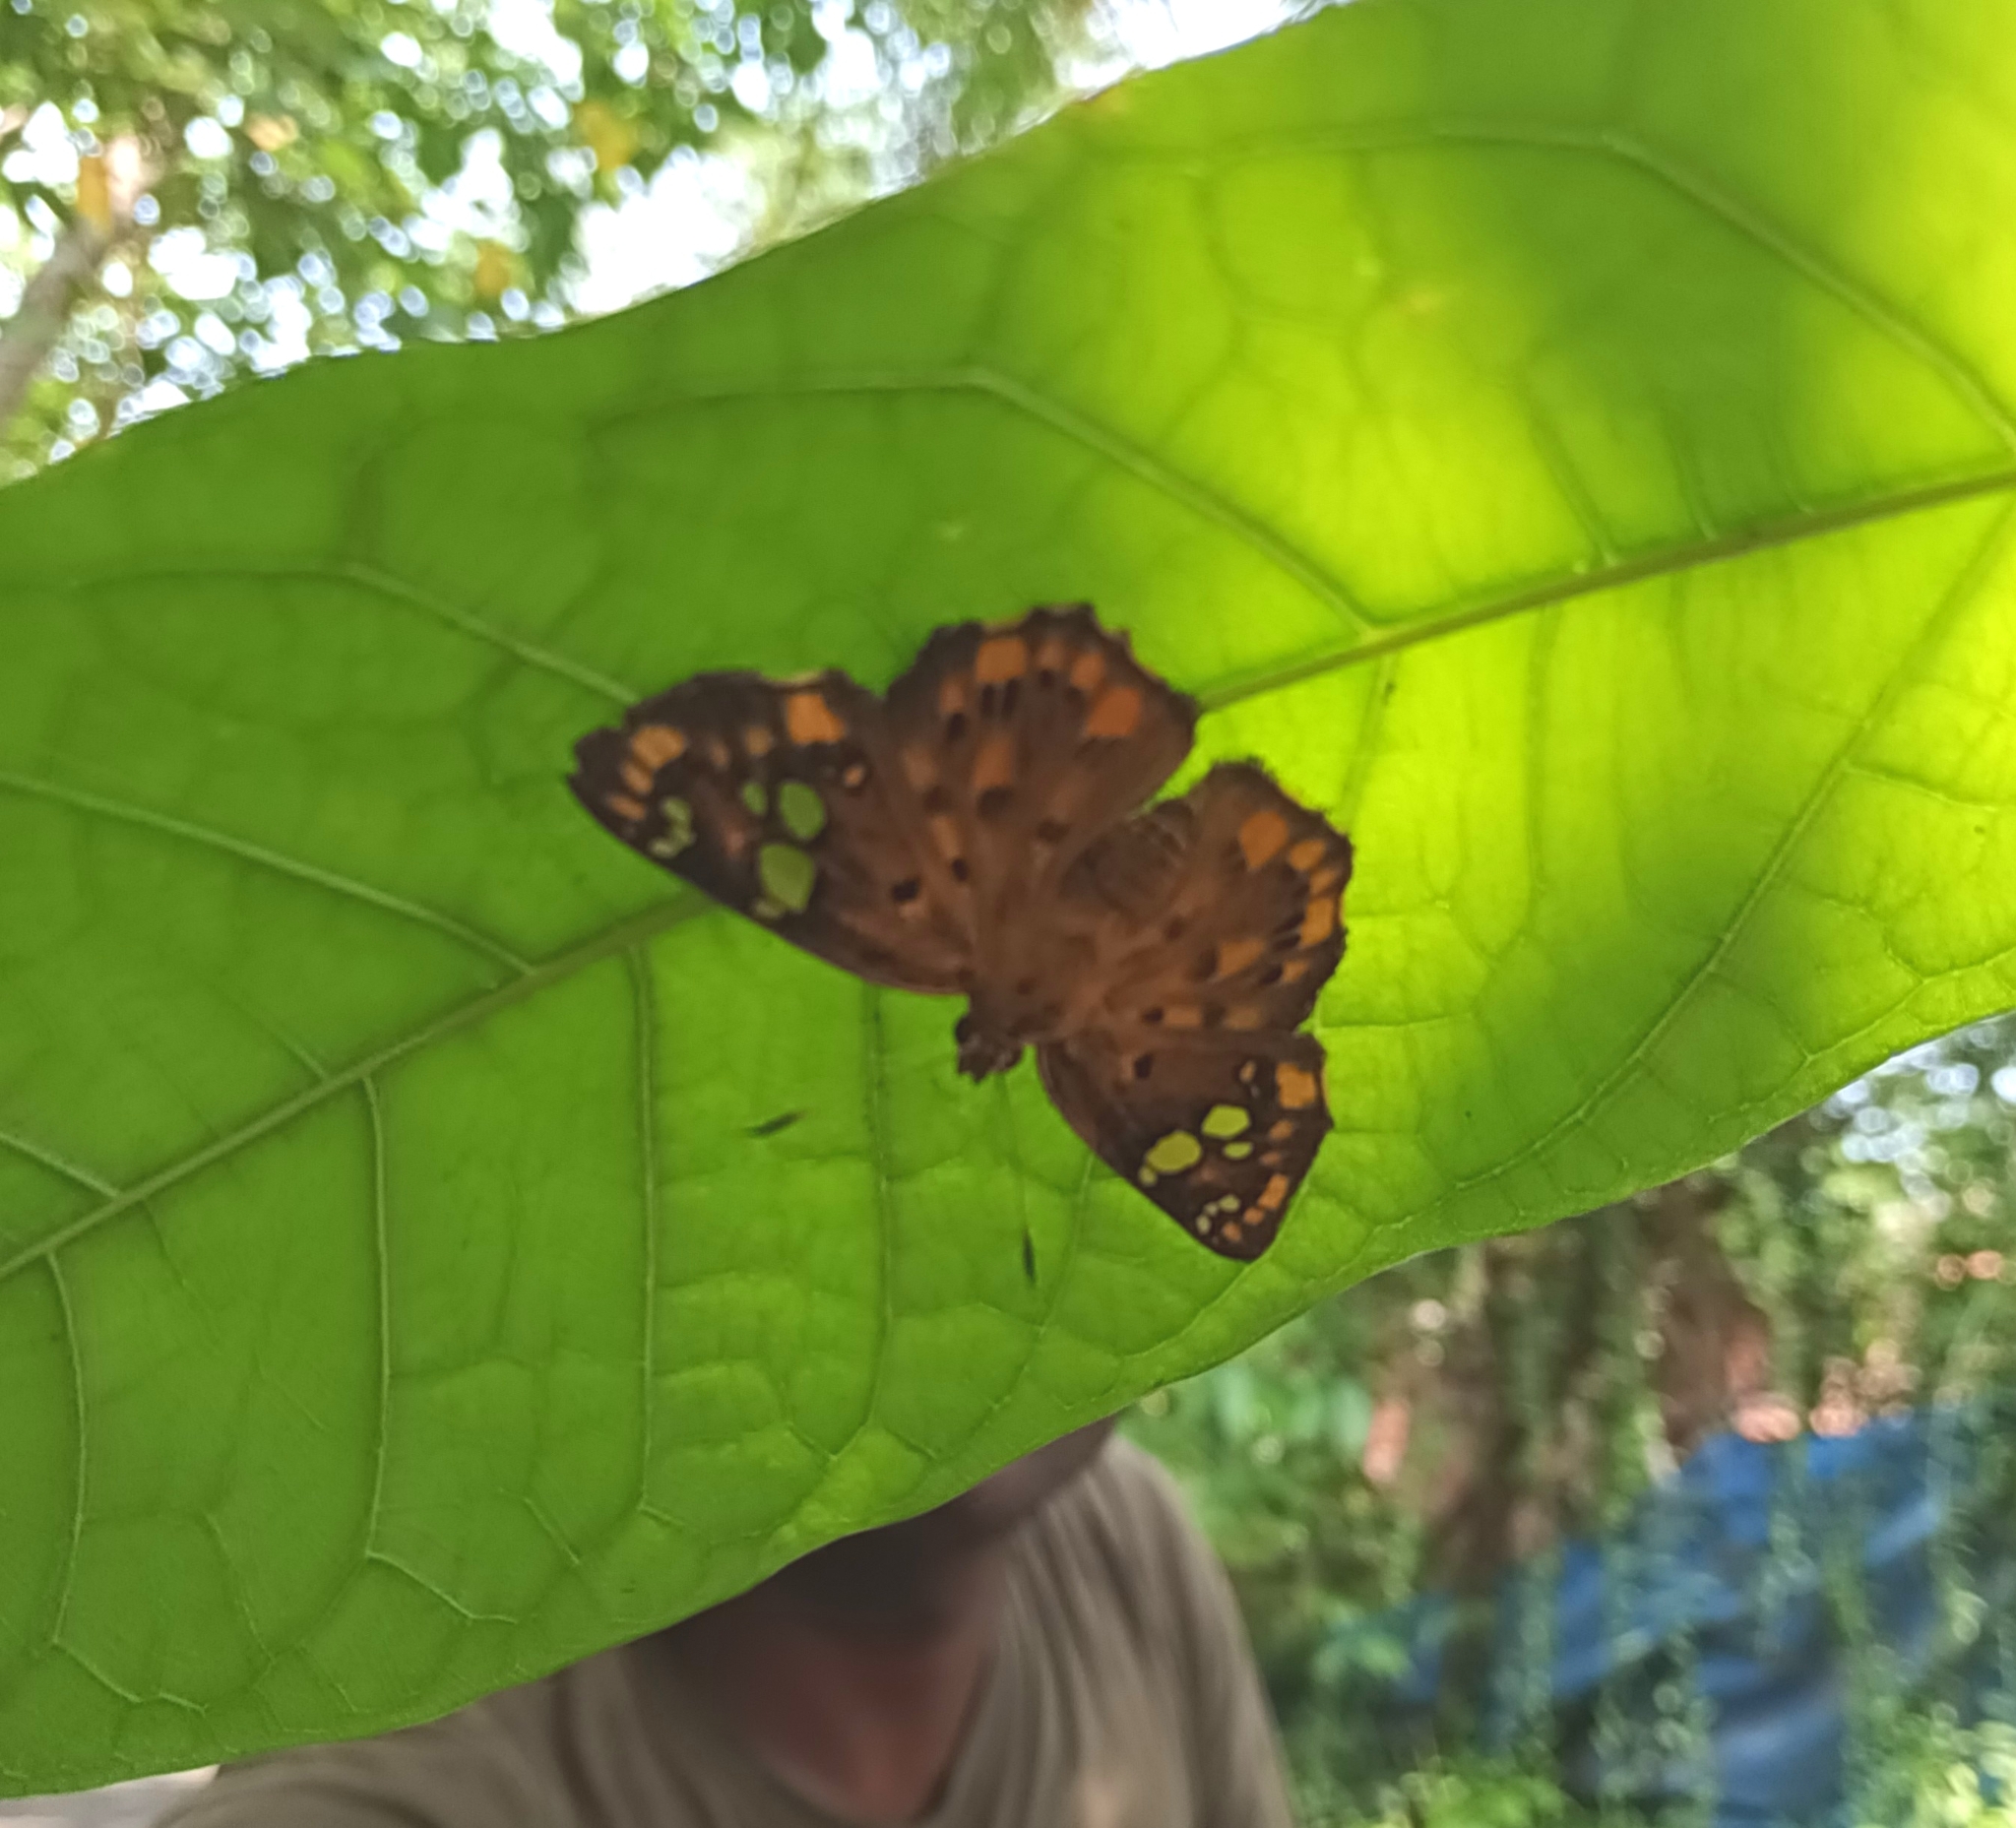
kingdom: Animalia
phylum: Arthropoda
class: Insecta
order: Lepidoptera
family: Hesperiidae
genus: Coladenia
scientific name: Coladenia
